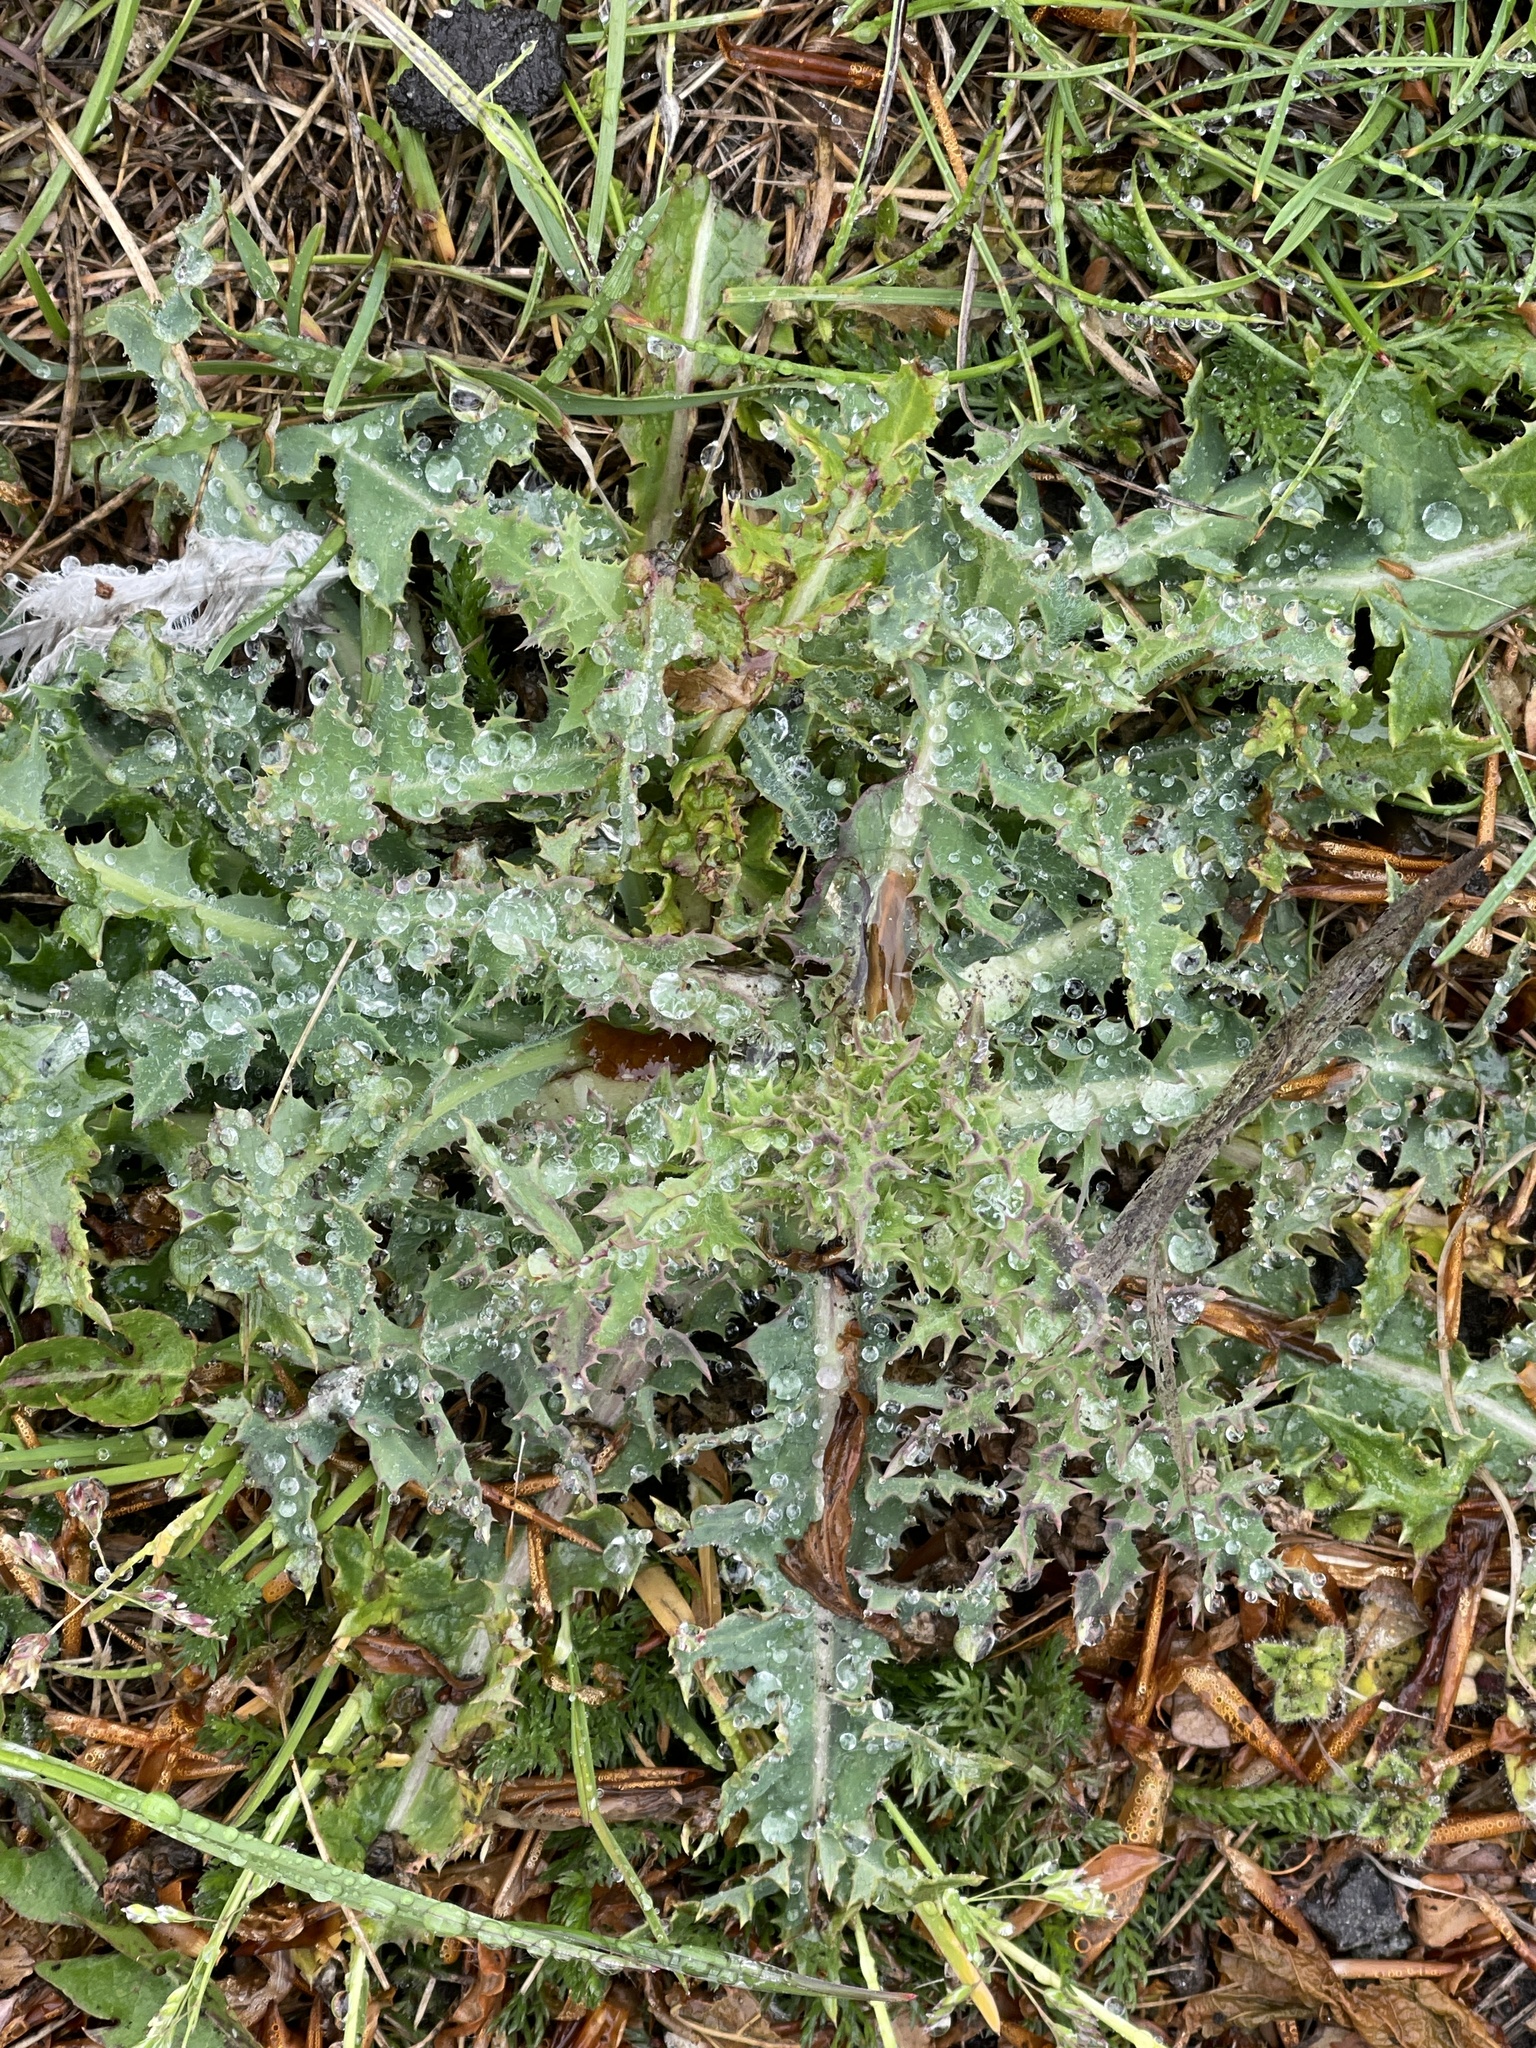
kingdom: Plantae
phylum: Tracheophyta
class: Magnoliopsida
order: Asterales
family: Asteraceae
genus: Sonchus
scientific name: Sonchus asper
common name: Prickly sow-thistle
